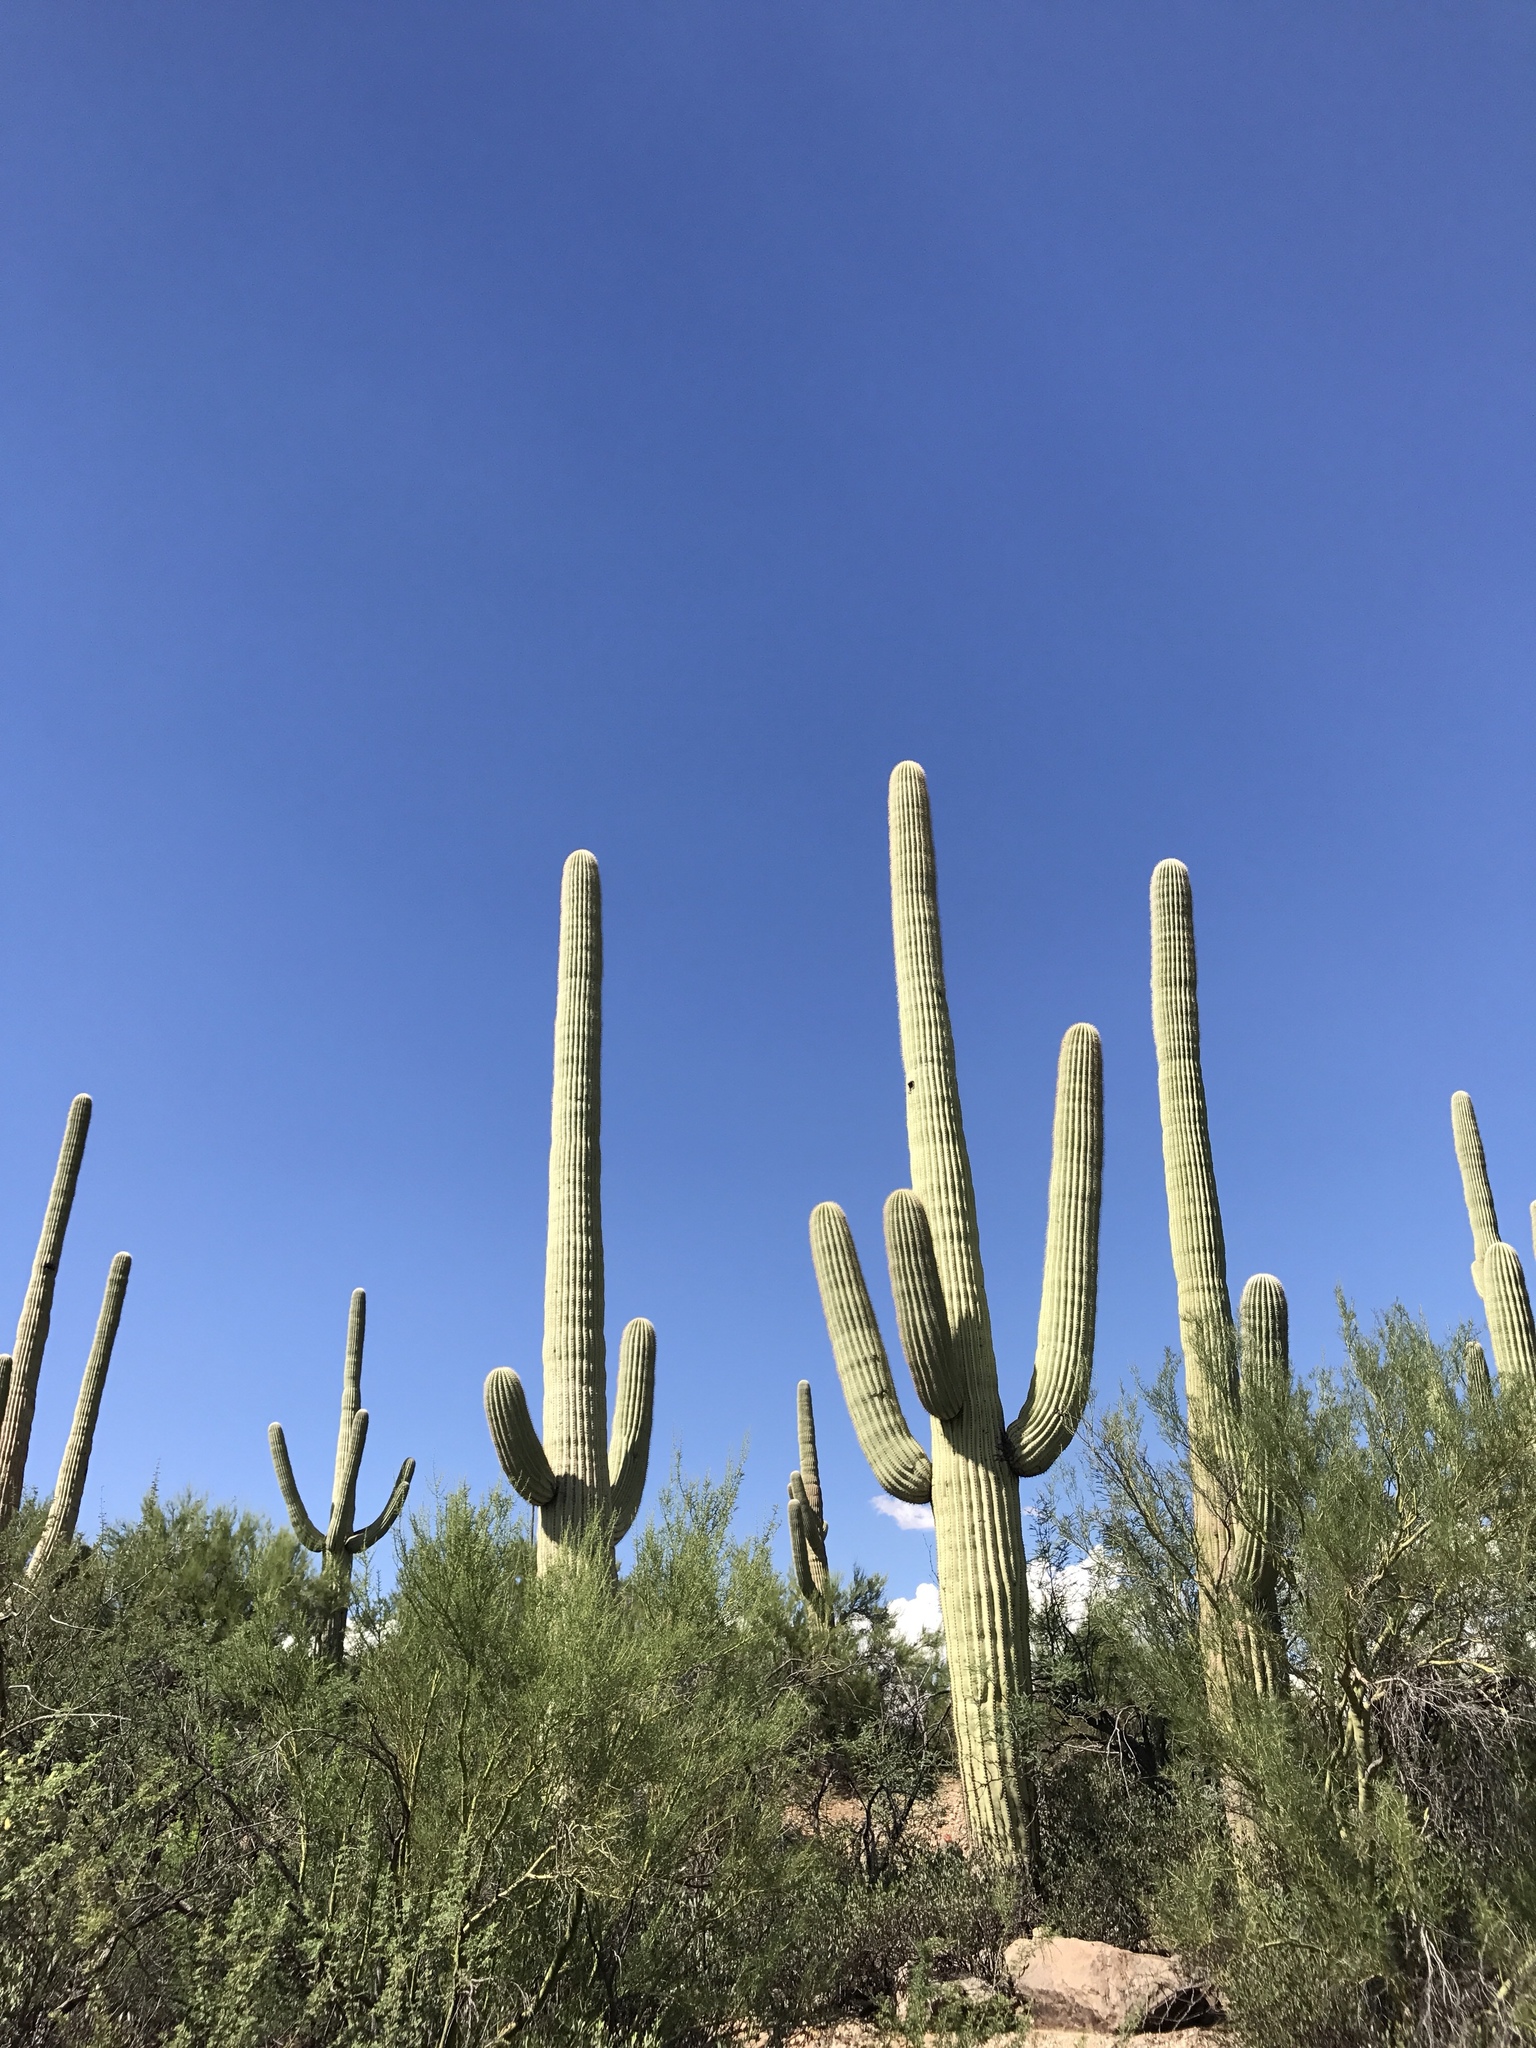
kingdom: Plantae
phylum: Tracheophyta
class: Magnoliopsida
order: Caryophyllales
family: Cactaceae
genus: Carnegiea
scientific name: Carnegiea gigantea
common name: Saguaro
